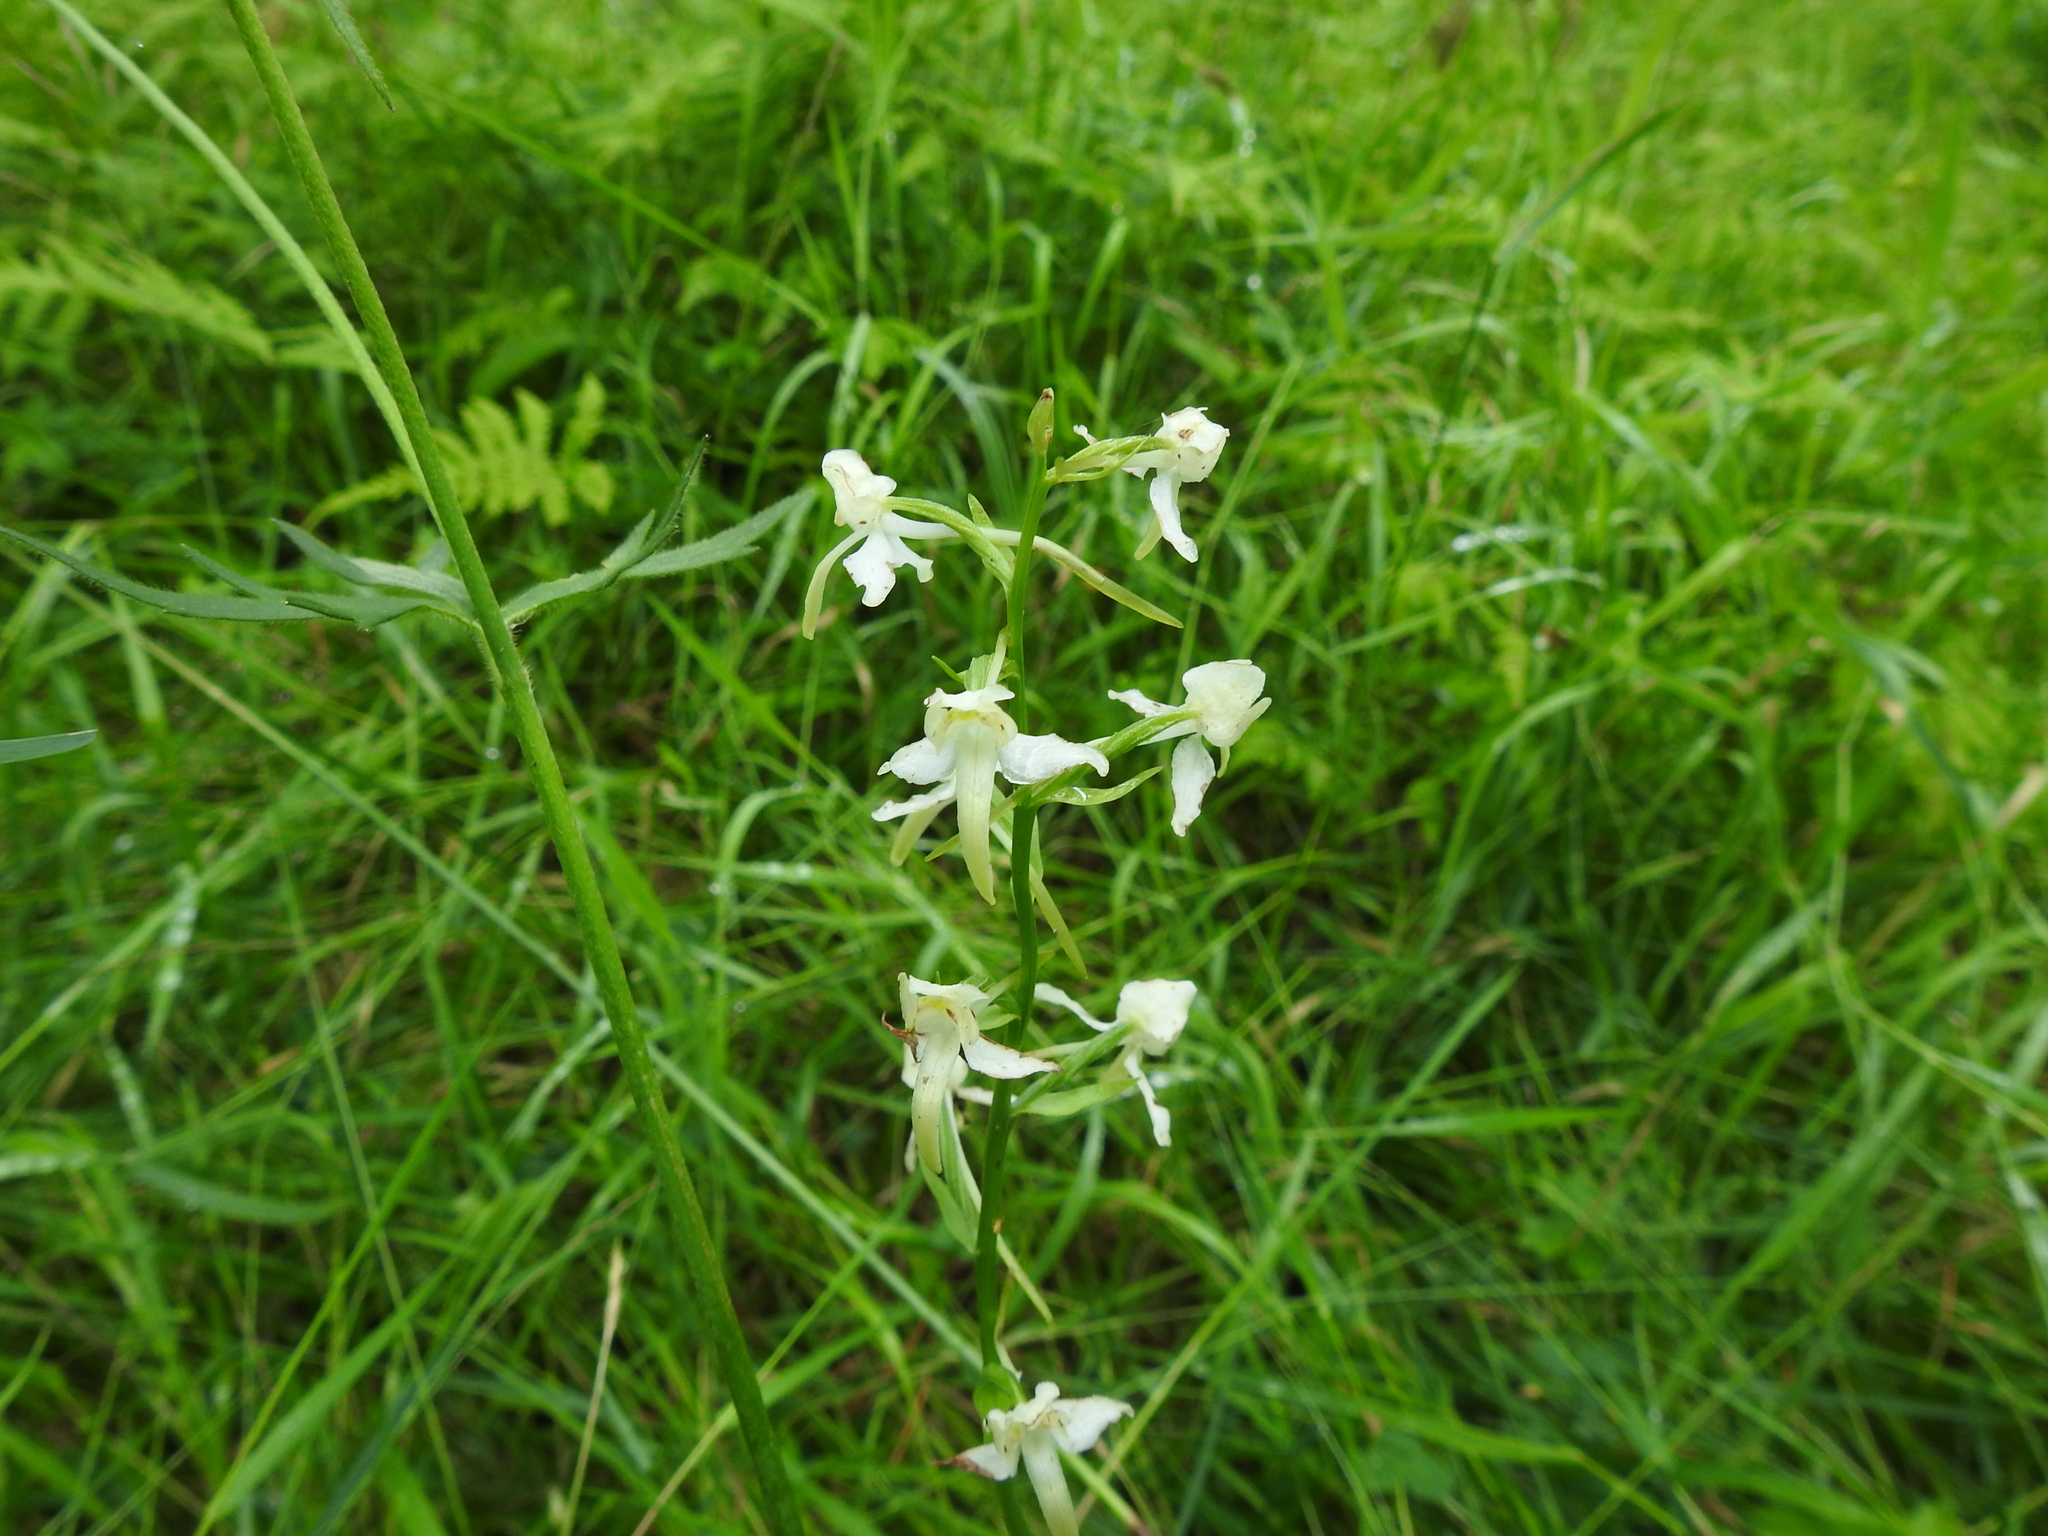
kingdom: Plantae
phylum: Tracheophyta
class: Liliopsida
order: Asparagales
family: Orchidaceae
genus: Platanthera
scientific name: Platanthera chlorantha
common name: Greater butterfly-orchid
